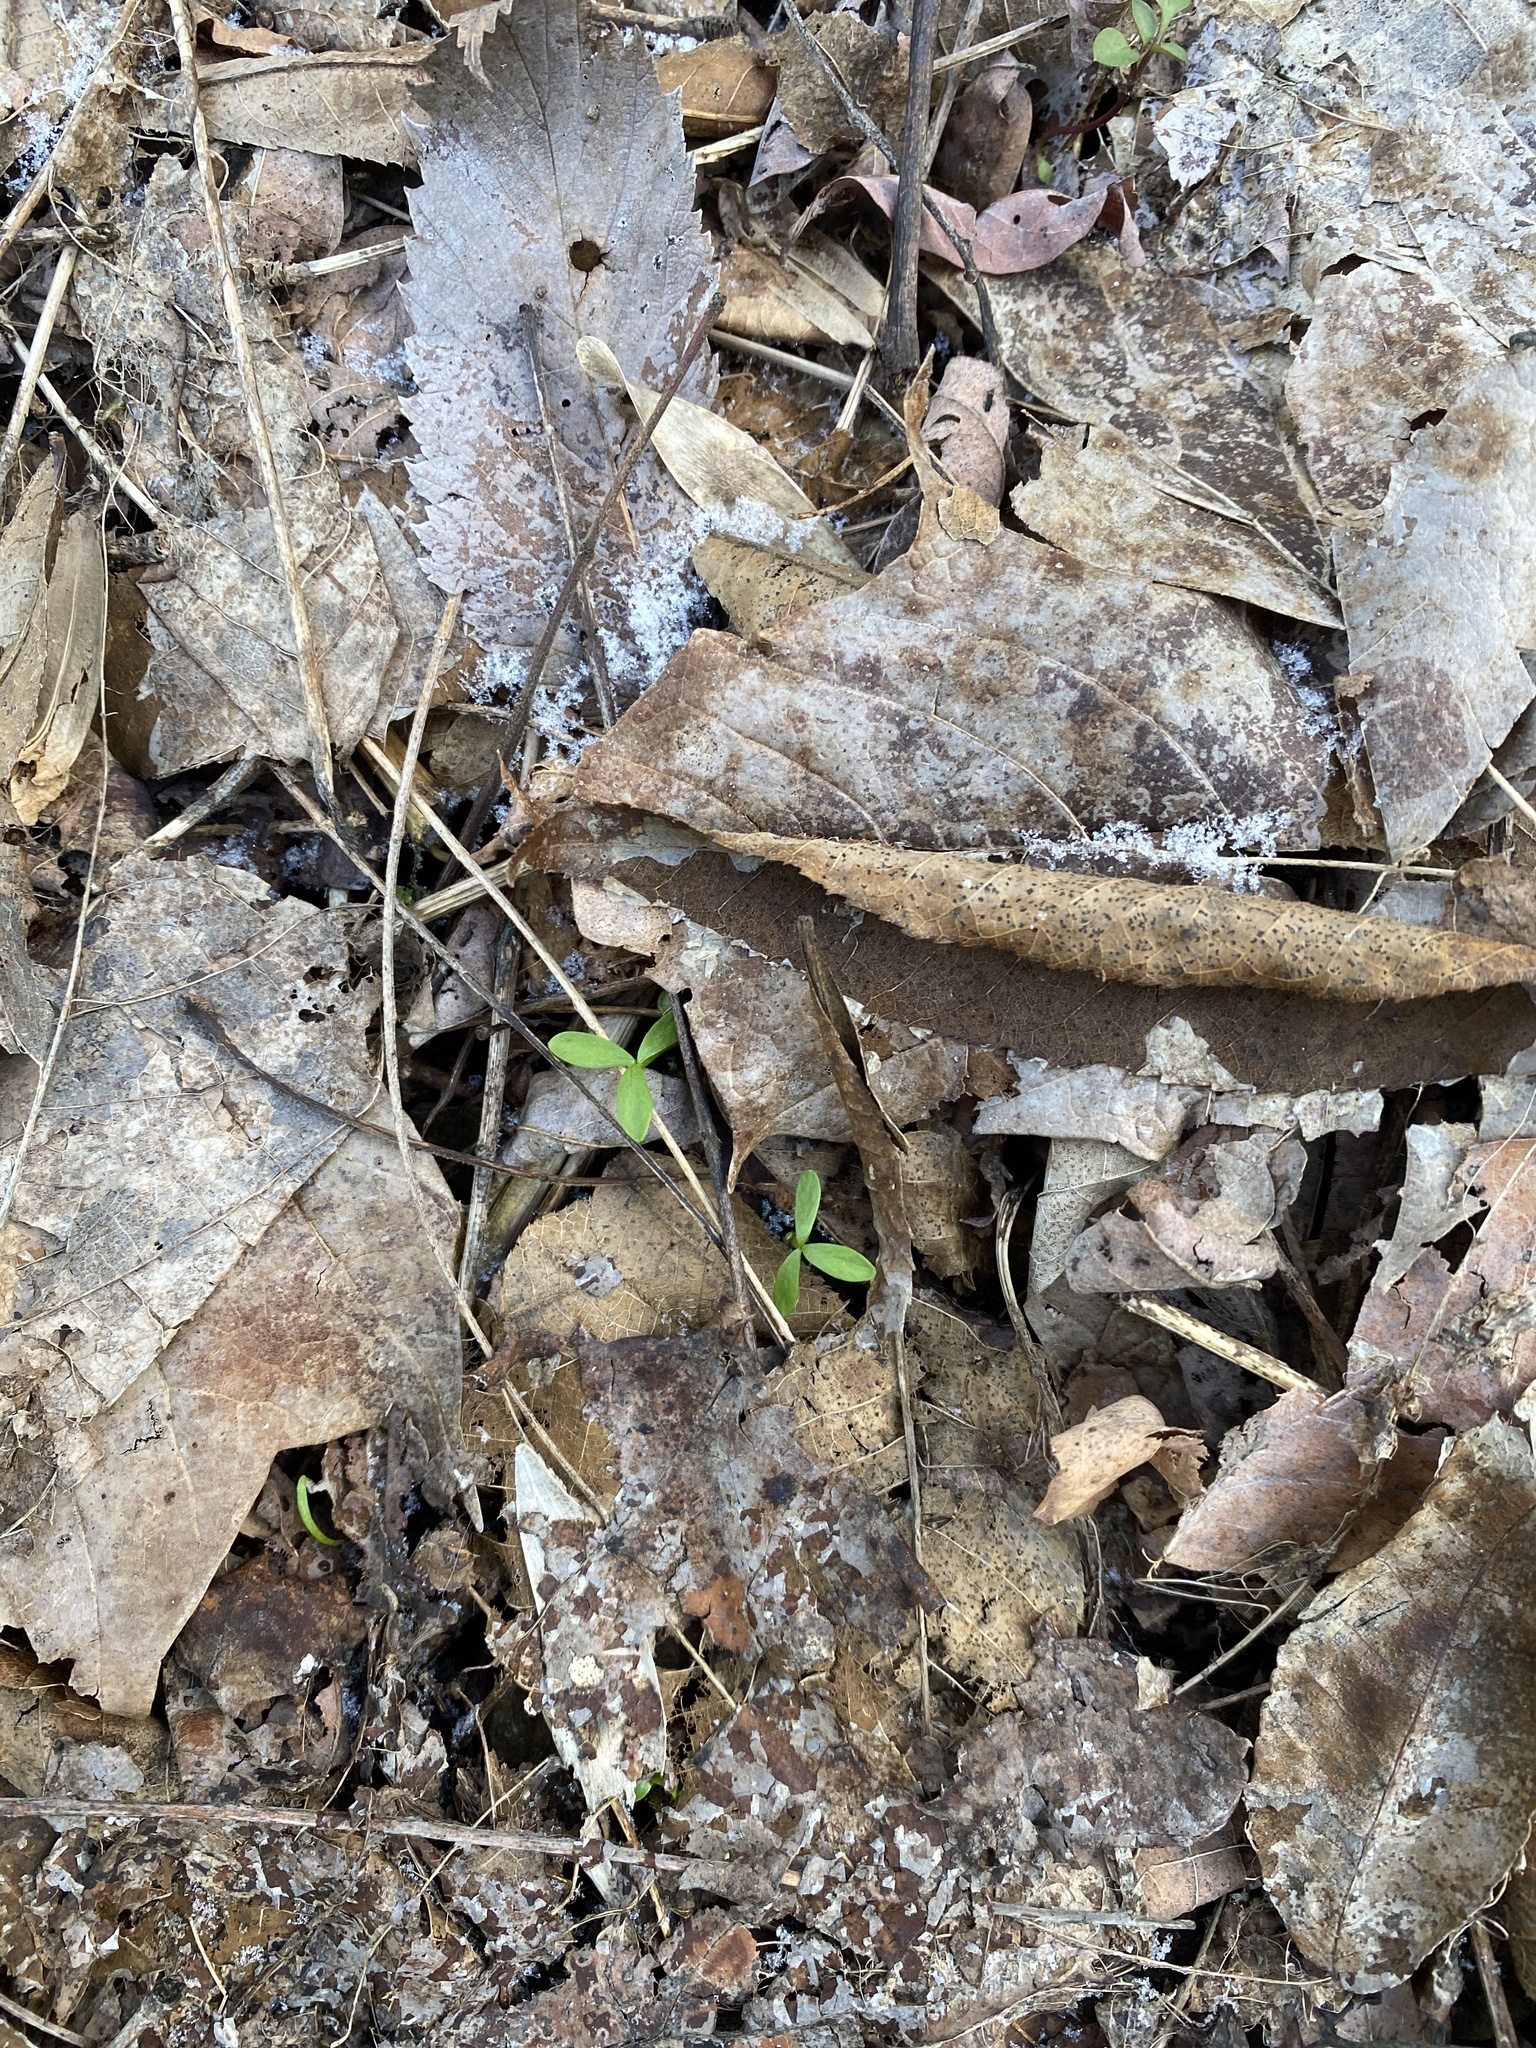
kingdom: Plantae
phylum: Tracheophyta
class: Magnoliopsida
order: Brassicales
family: Limnanthaceae
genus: Floerkea
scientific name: Floerkea proserpinacoides
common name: False mermaid
